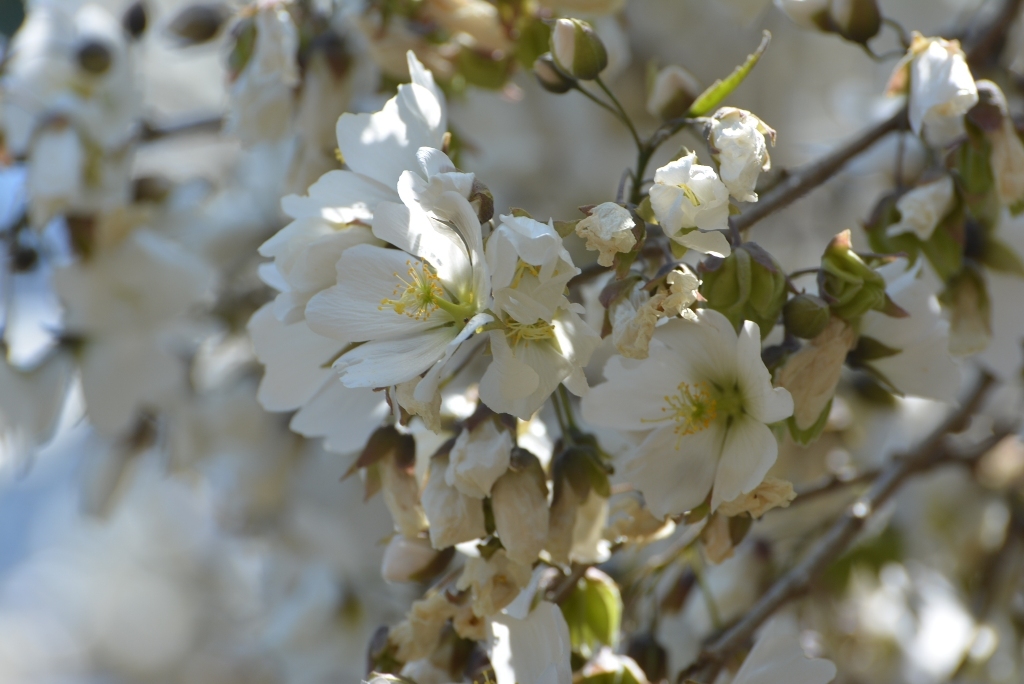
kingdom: Plantae
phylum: Tracheophyta
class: Magnoliopsida
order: Malvales
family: Malvaceae
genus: Robinsonella
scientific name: Robinsonella glabrifolia
